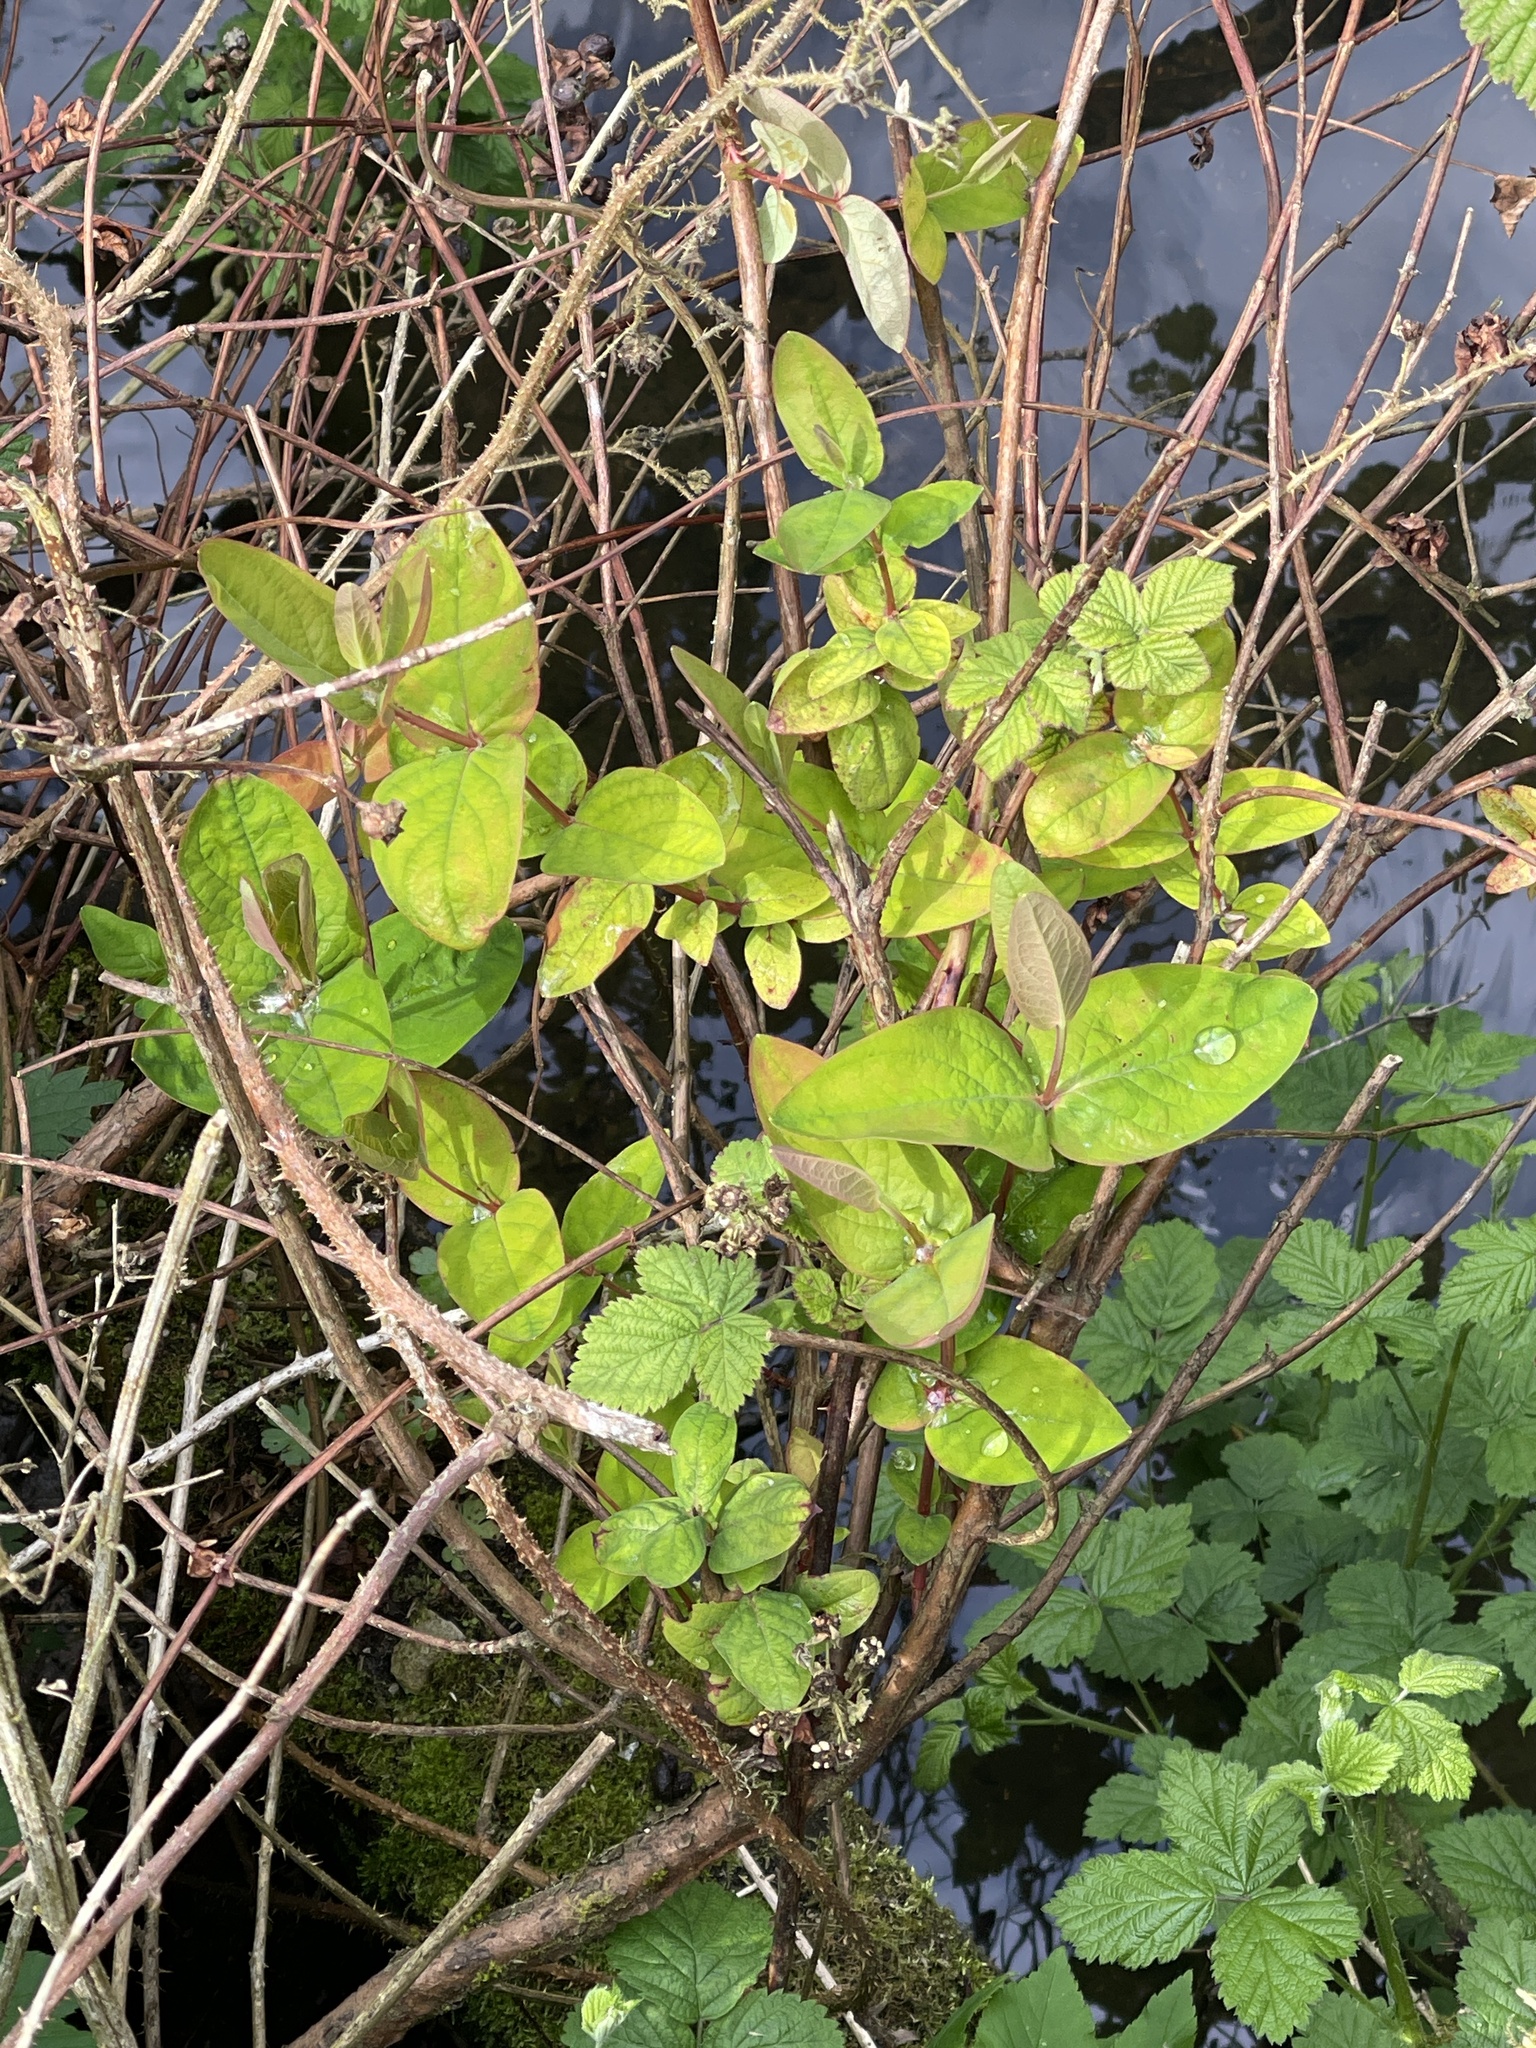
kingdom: Plantae
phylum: Tracheophyta
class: Magnoliopsida
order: Malpighiales
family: Hypericaceae
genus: Hypericum
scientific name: Hypericum androsaemum
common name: Sweet-amber
